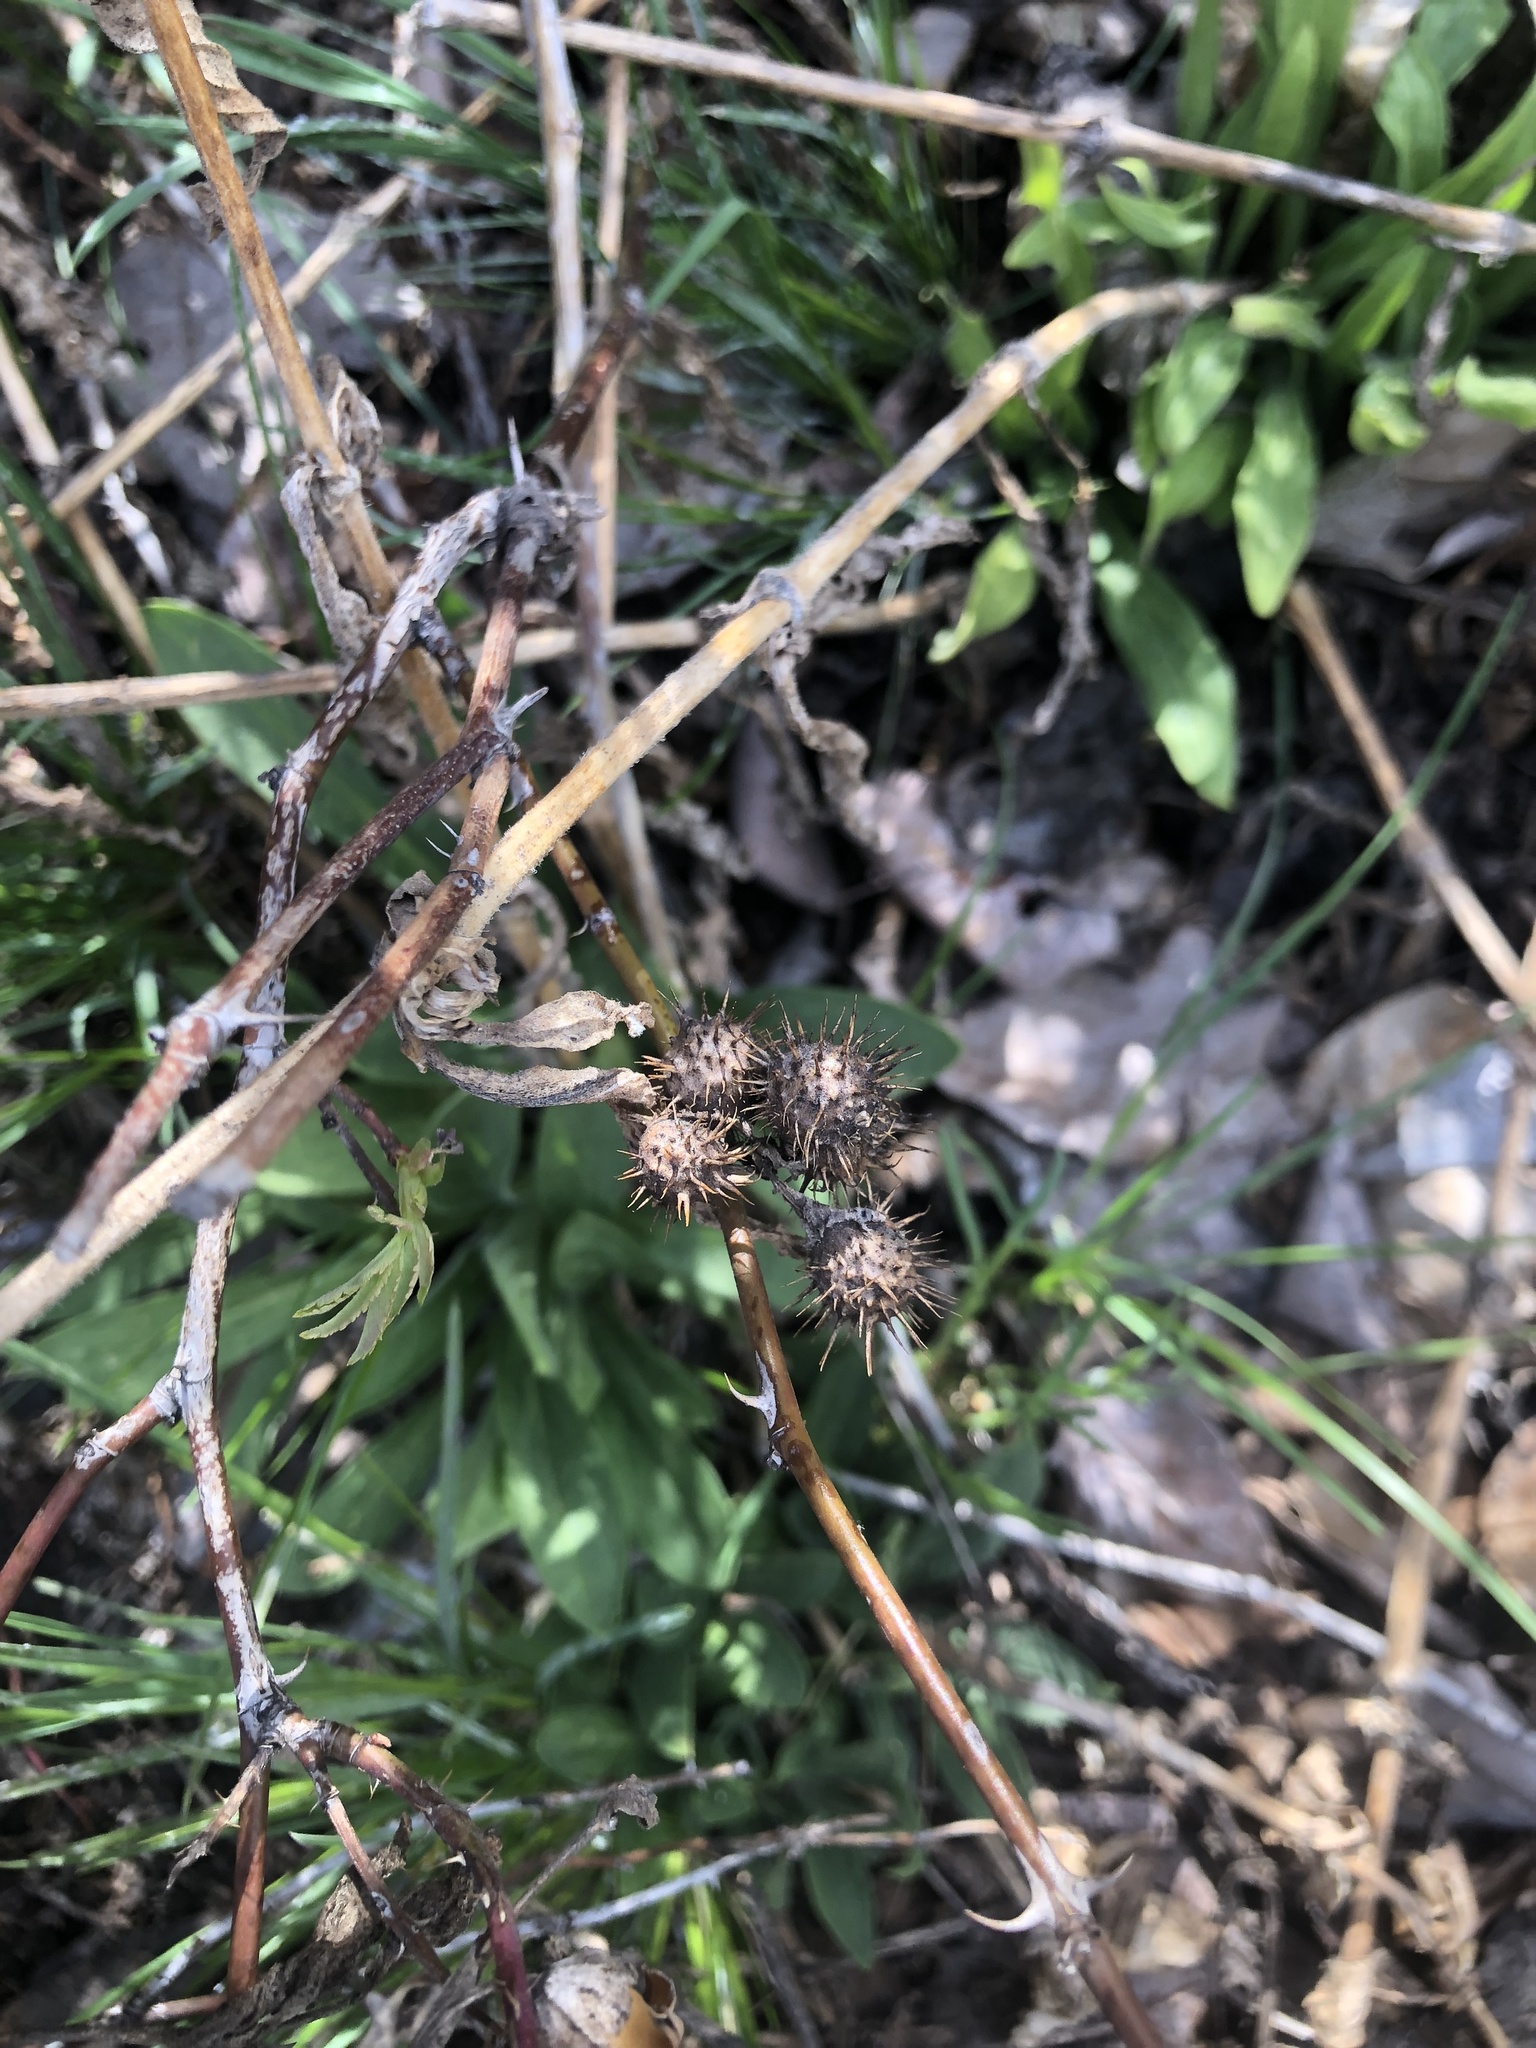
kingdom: Animalia
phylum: Arthropoda
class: Insecta
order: Hymenoptera
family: Cynipidae
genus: Diplolepis
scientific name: Diplolepis polita
